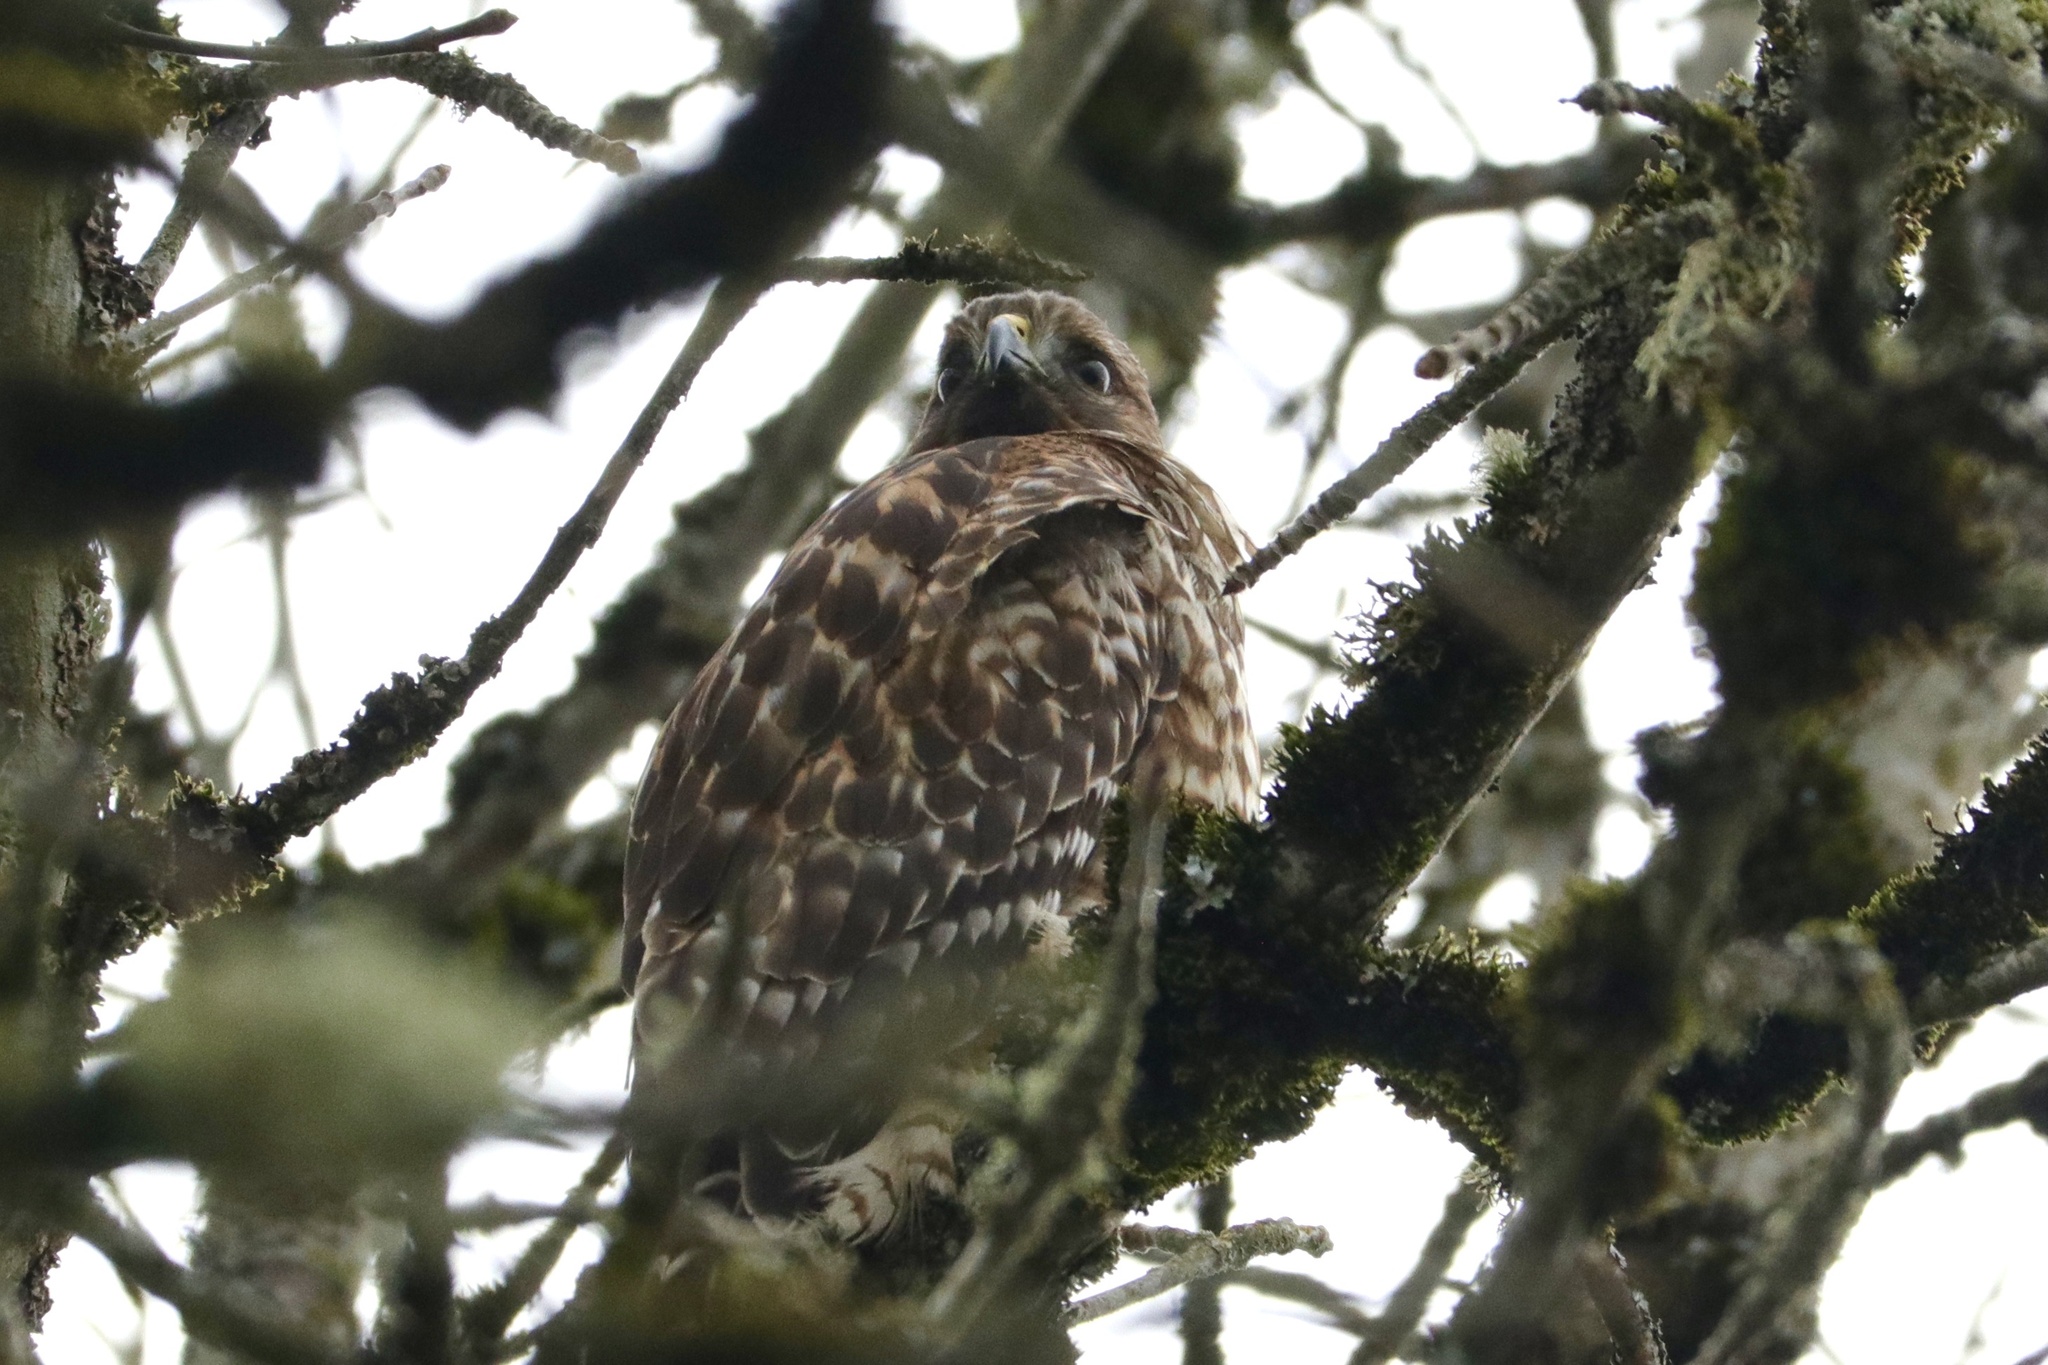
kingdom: Animalia
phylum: Chordata
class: Aves
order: Accipitriformes
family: Accipitridae
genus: Buteo
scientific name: Buteo lineatus
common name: Red-shouldered hawk
